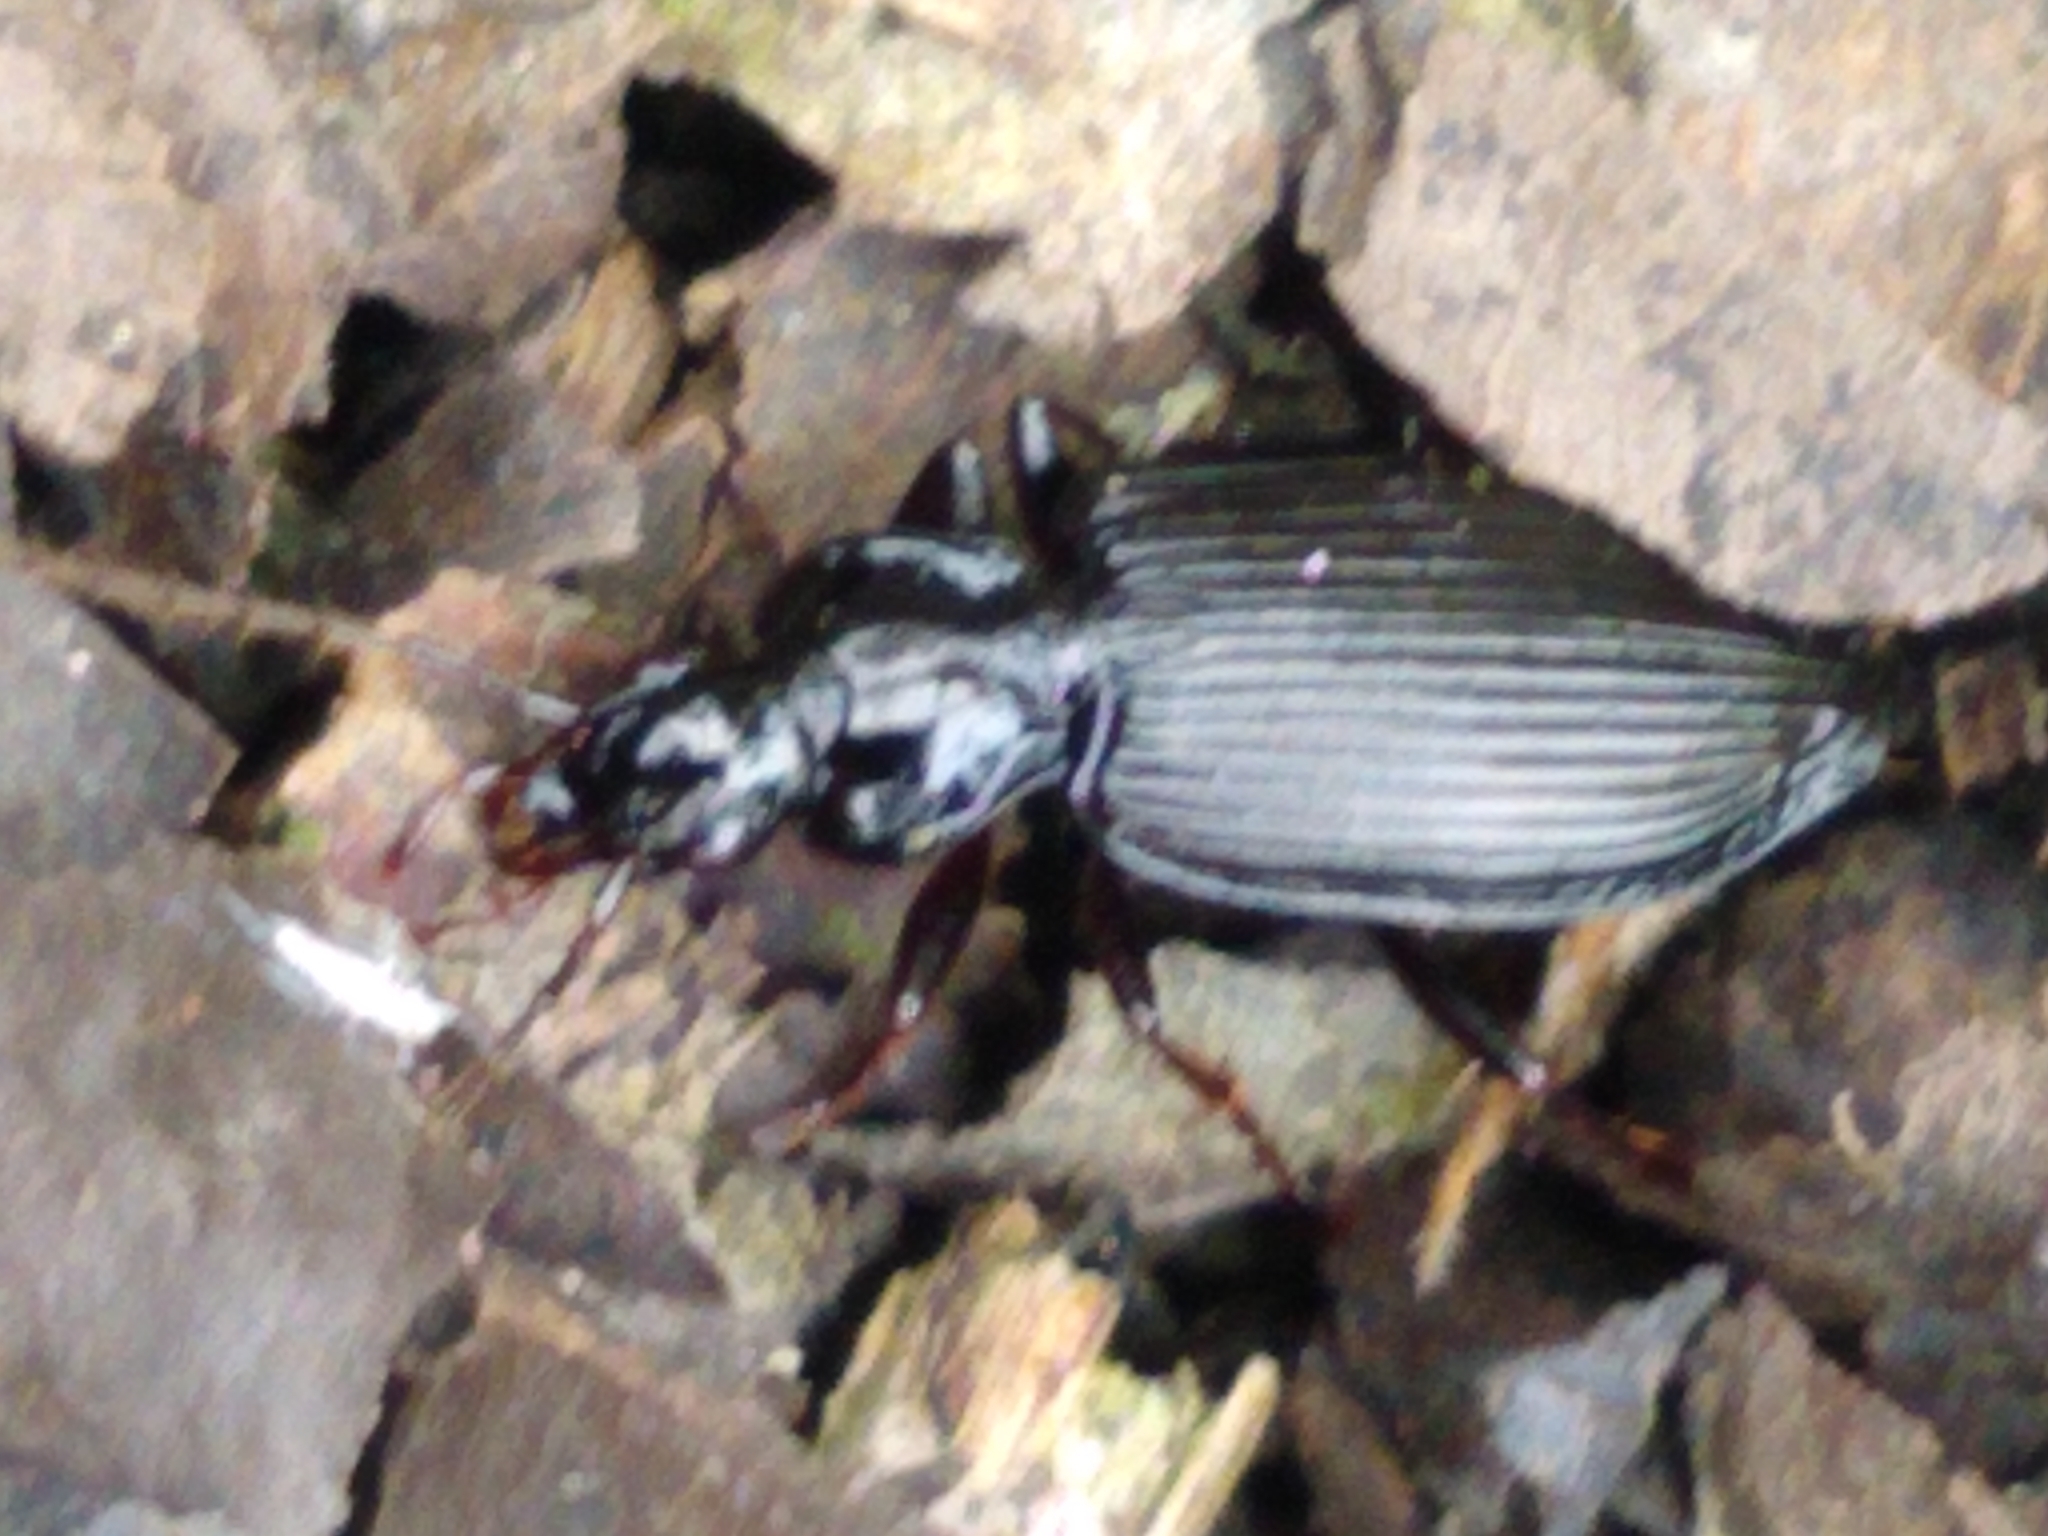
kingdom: Animalia
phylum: Arthropoda
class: Insecta
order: Coleoptera
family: Carabidae
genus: Platynus
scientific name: Platynus assimilis
